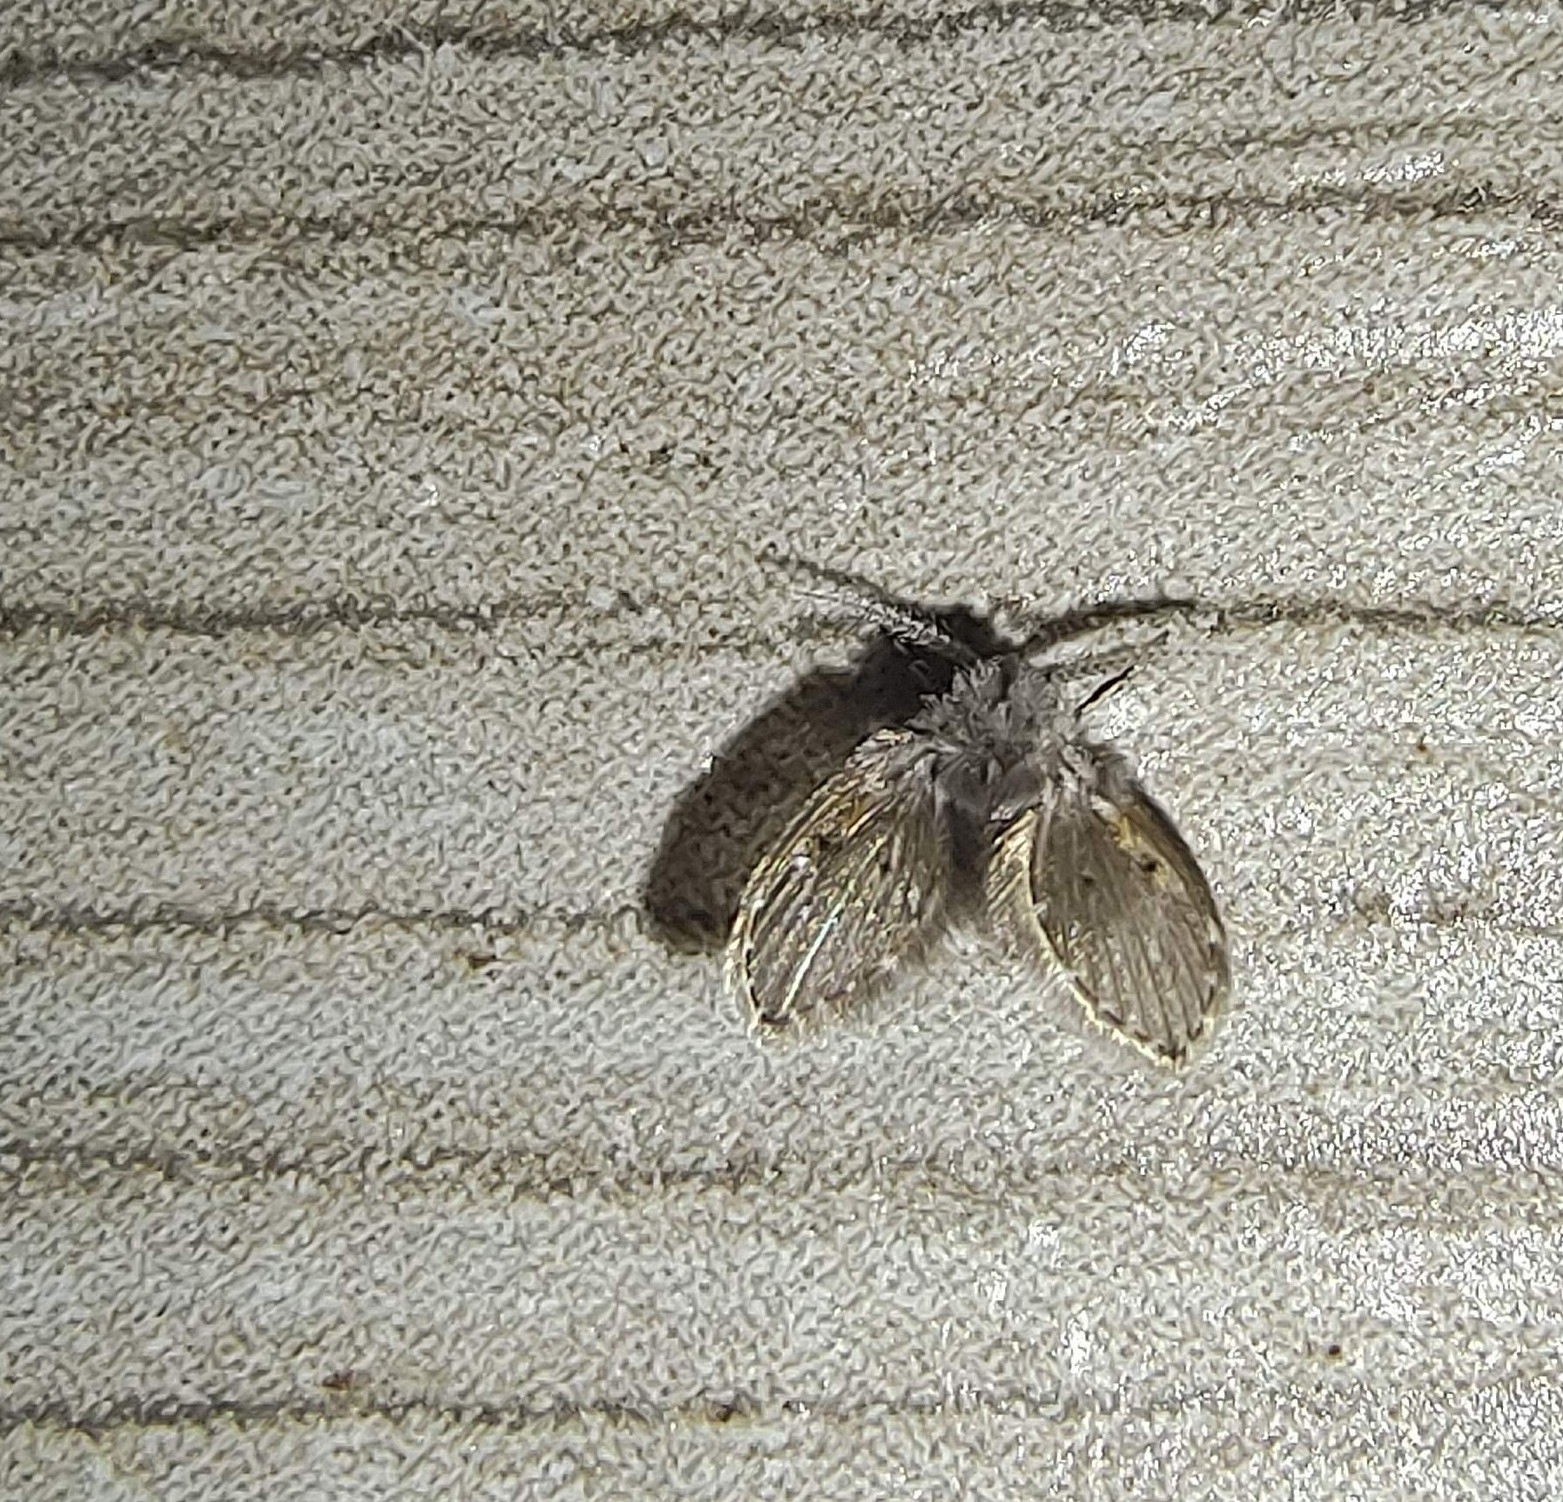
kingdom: Animalia
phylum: Arthropoda
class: Insecta
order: Diptera
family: Psychodidae
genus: Clogmia
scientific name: Clogmia albipunctatus
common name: White-spotted moth fly
